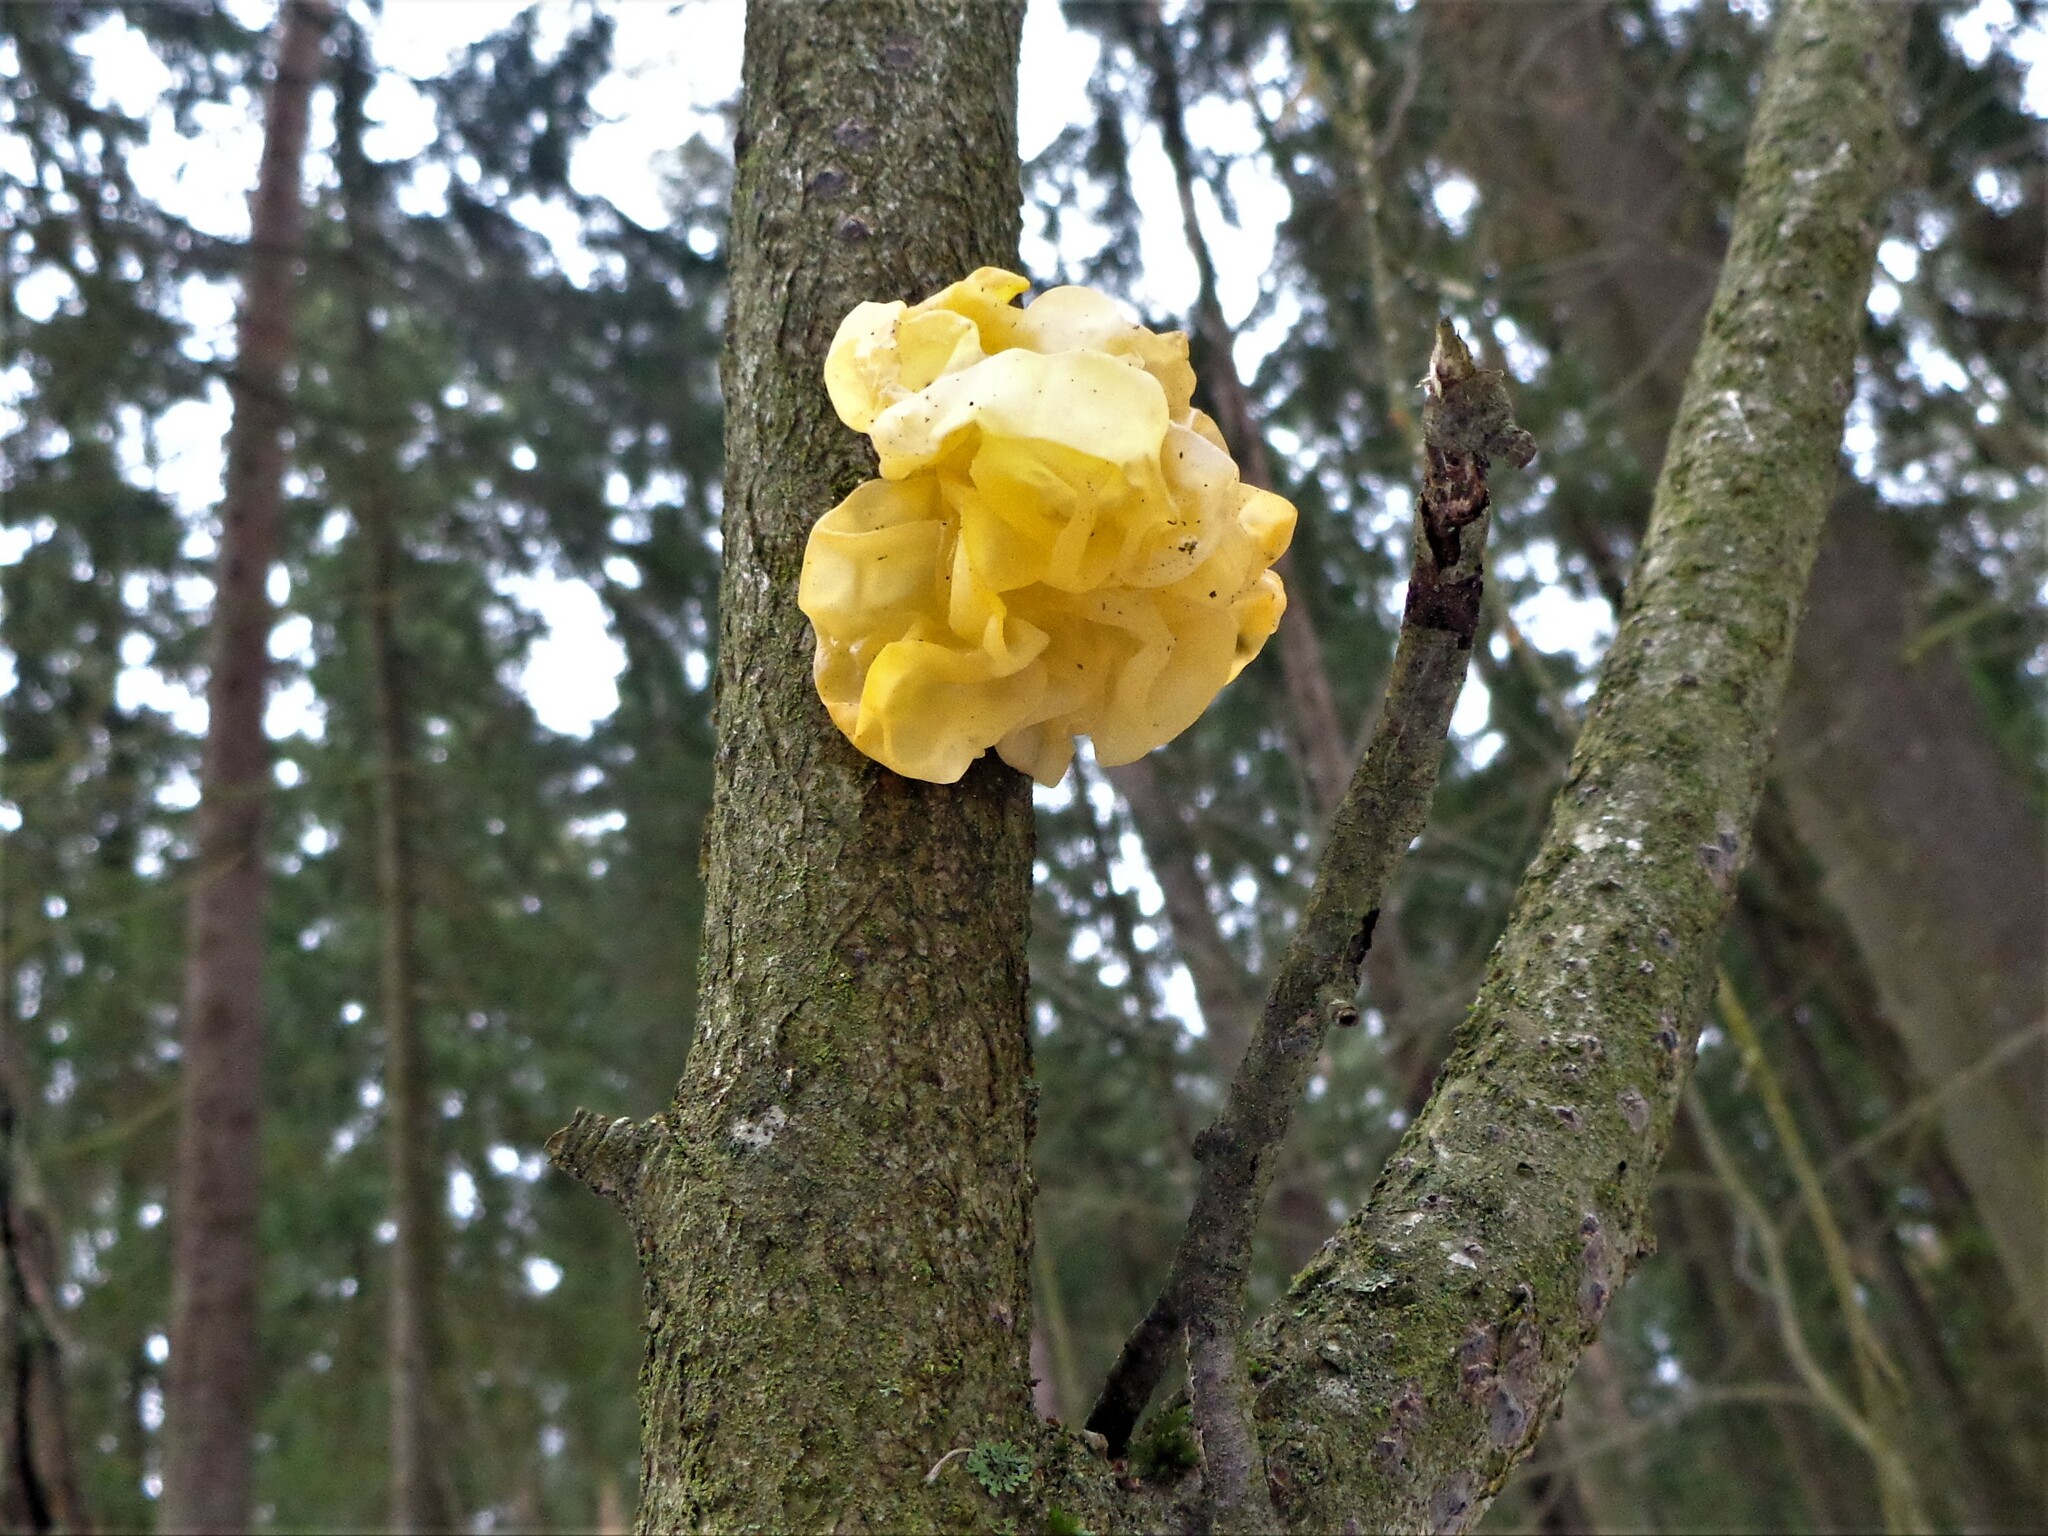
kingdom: Fungi
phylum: Basidiomycota
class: Tremellomycetes
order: Tremellales
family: Tremellaceae
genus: Tremella
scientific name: Tremella mesenterica
